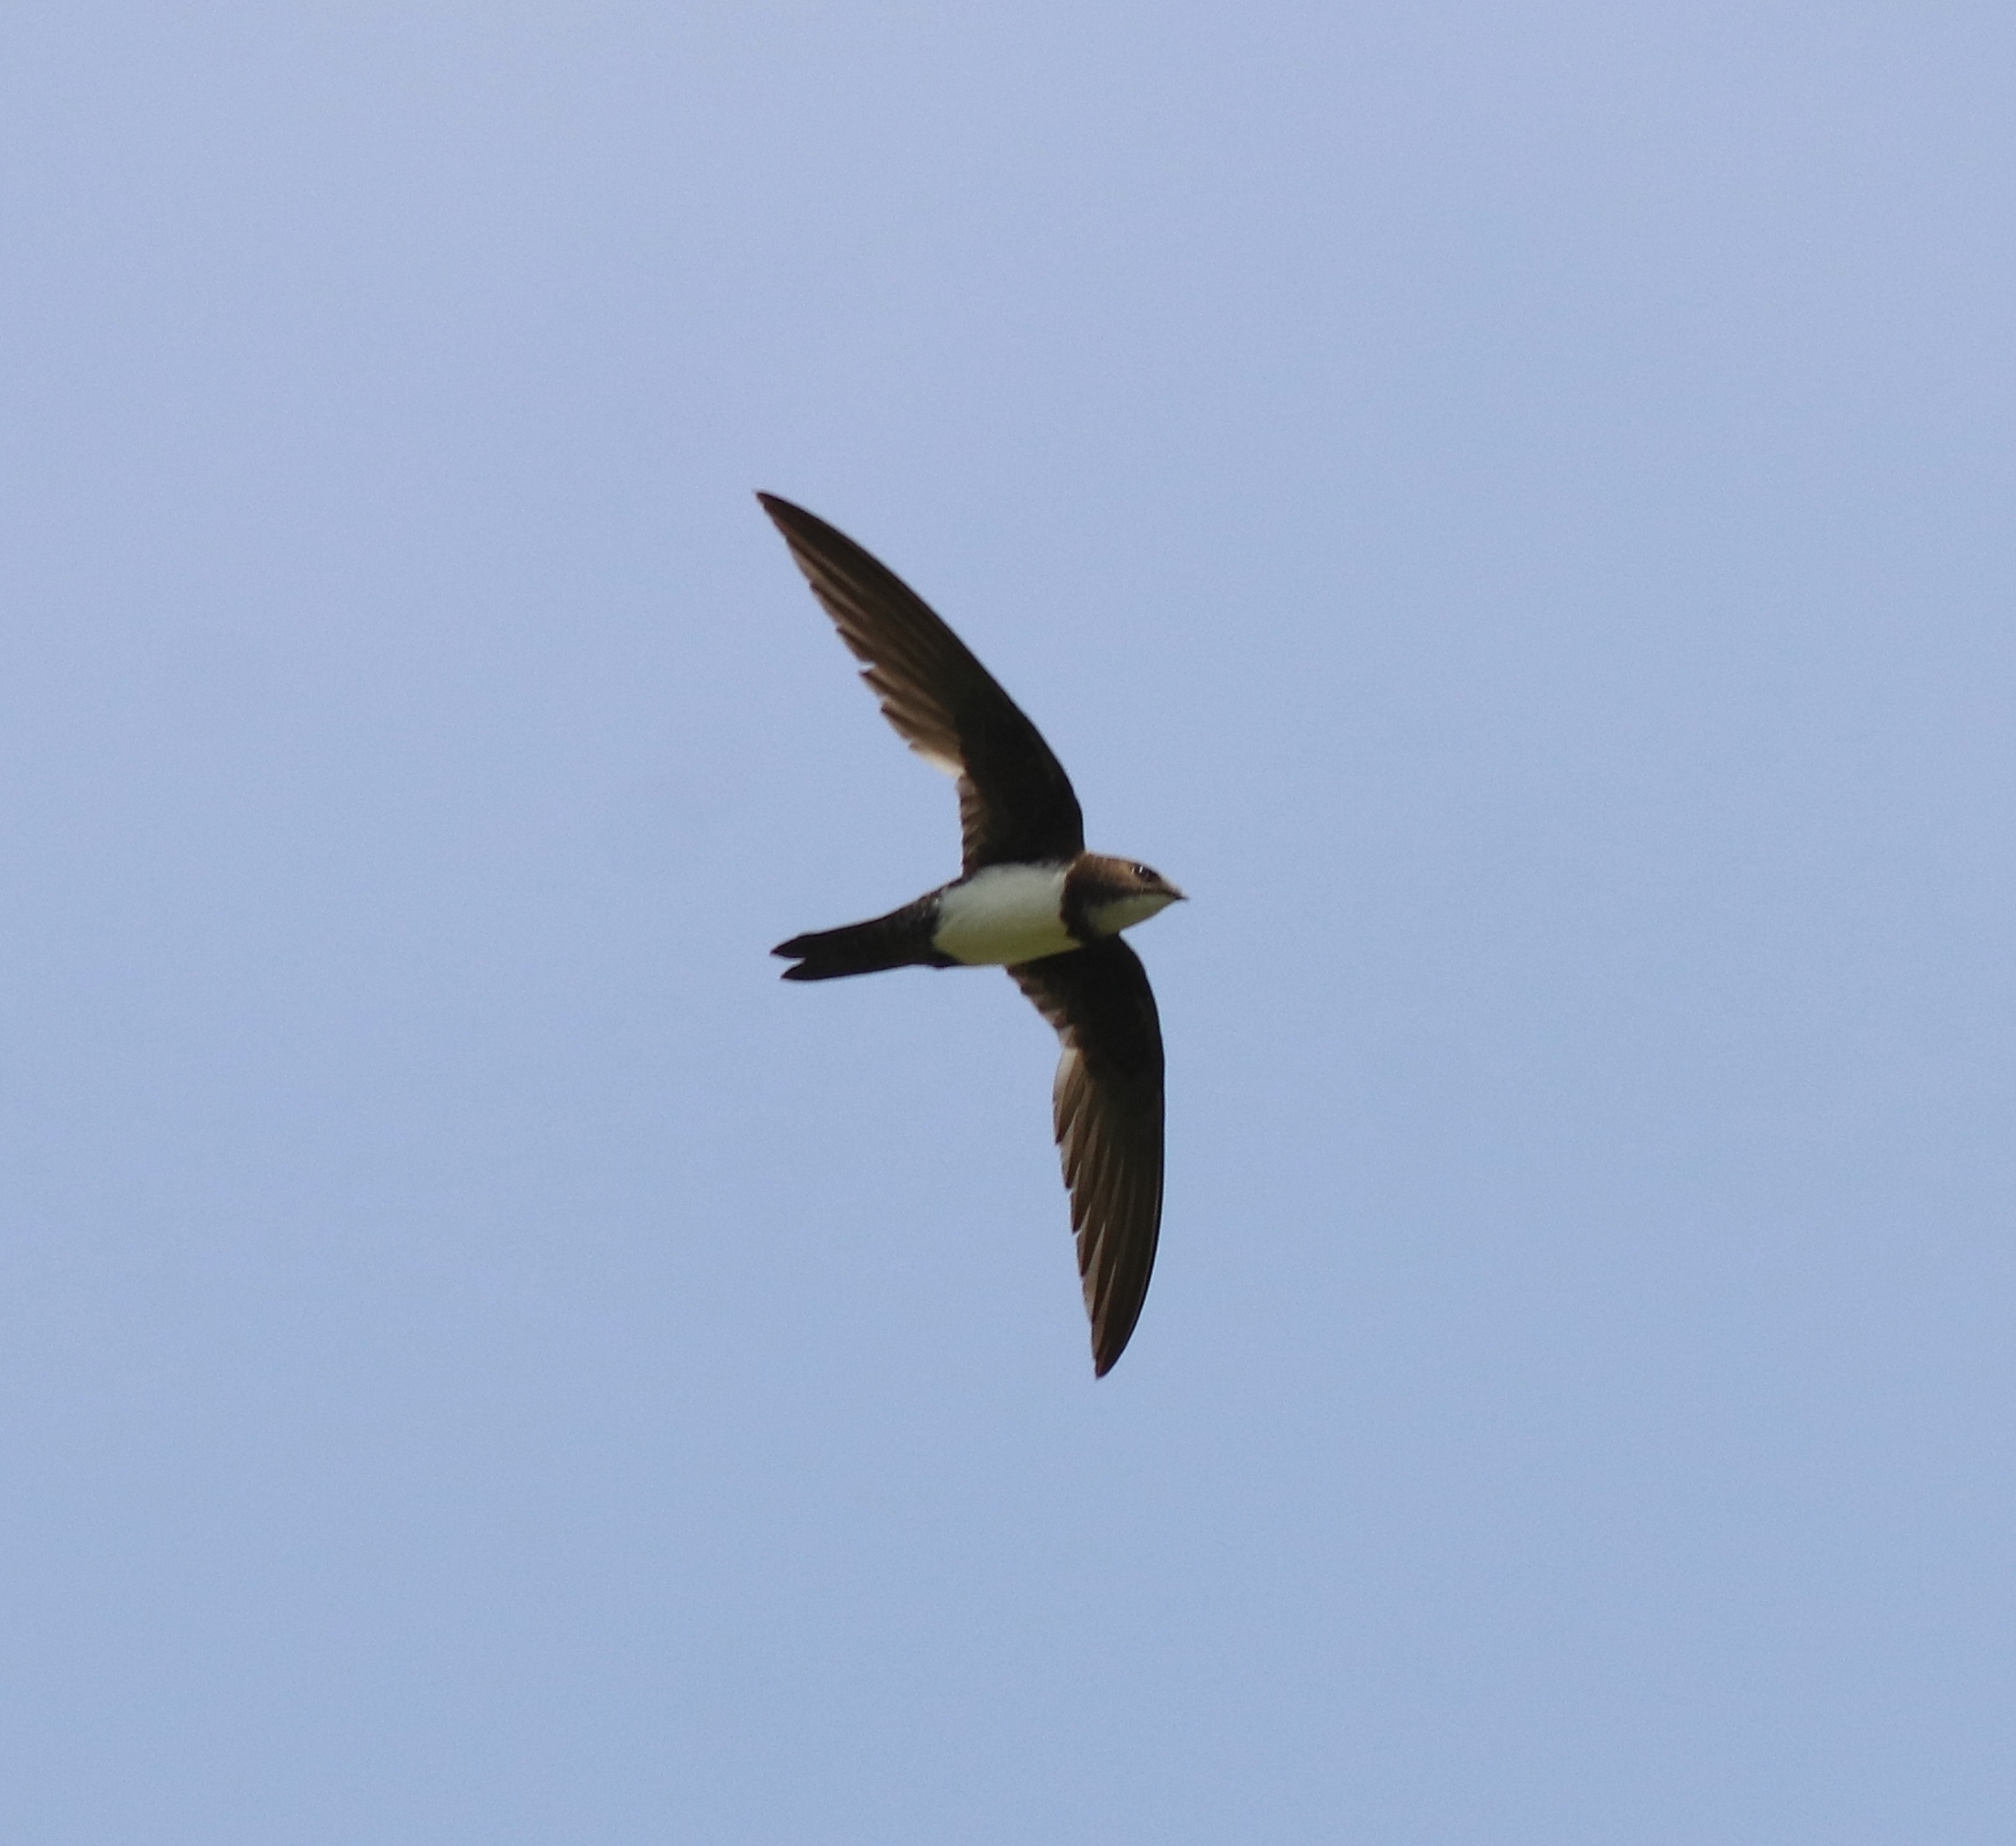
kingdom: Animalia
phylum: Chordata
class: Aves
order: Apodiformes
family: Apodidae
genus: Tachymarptis
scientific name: Tachymarptis melba
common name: Alpine swift
